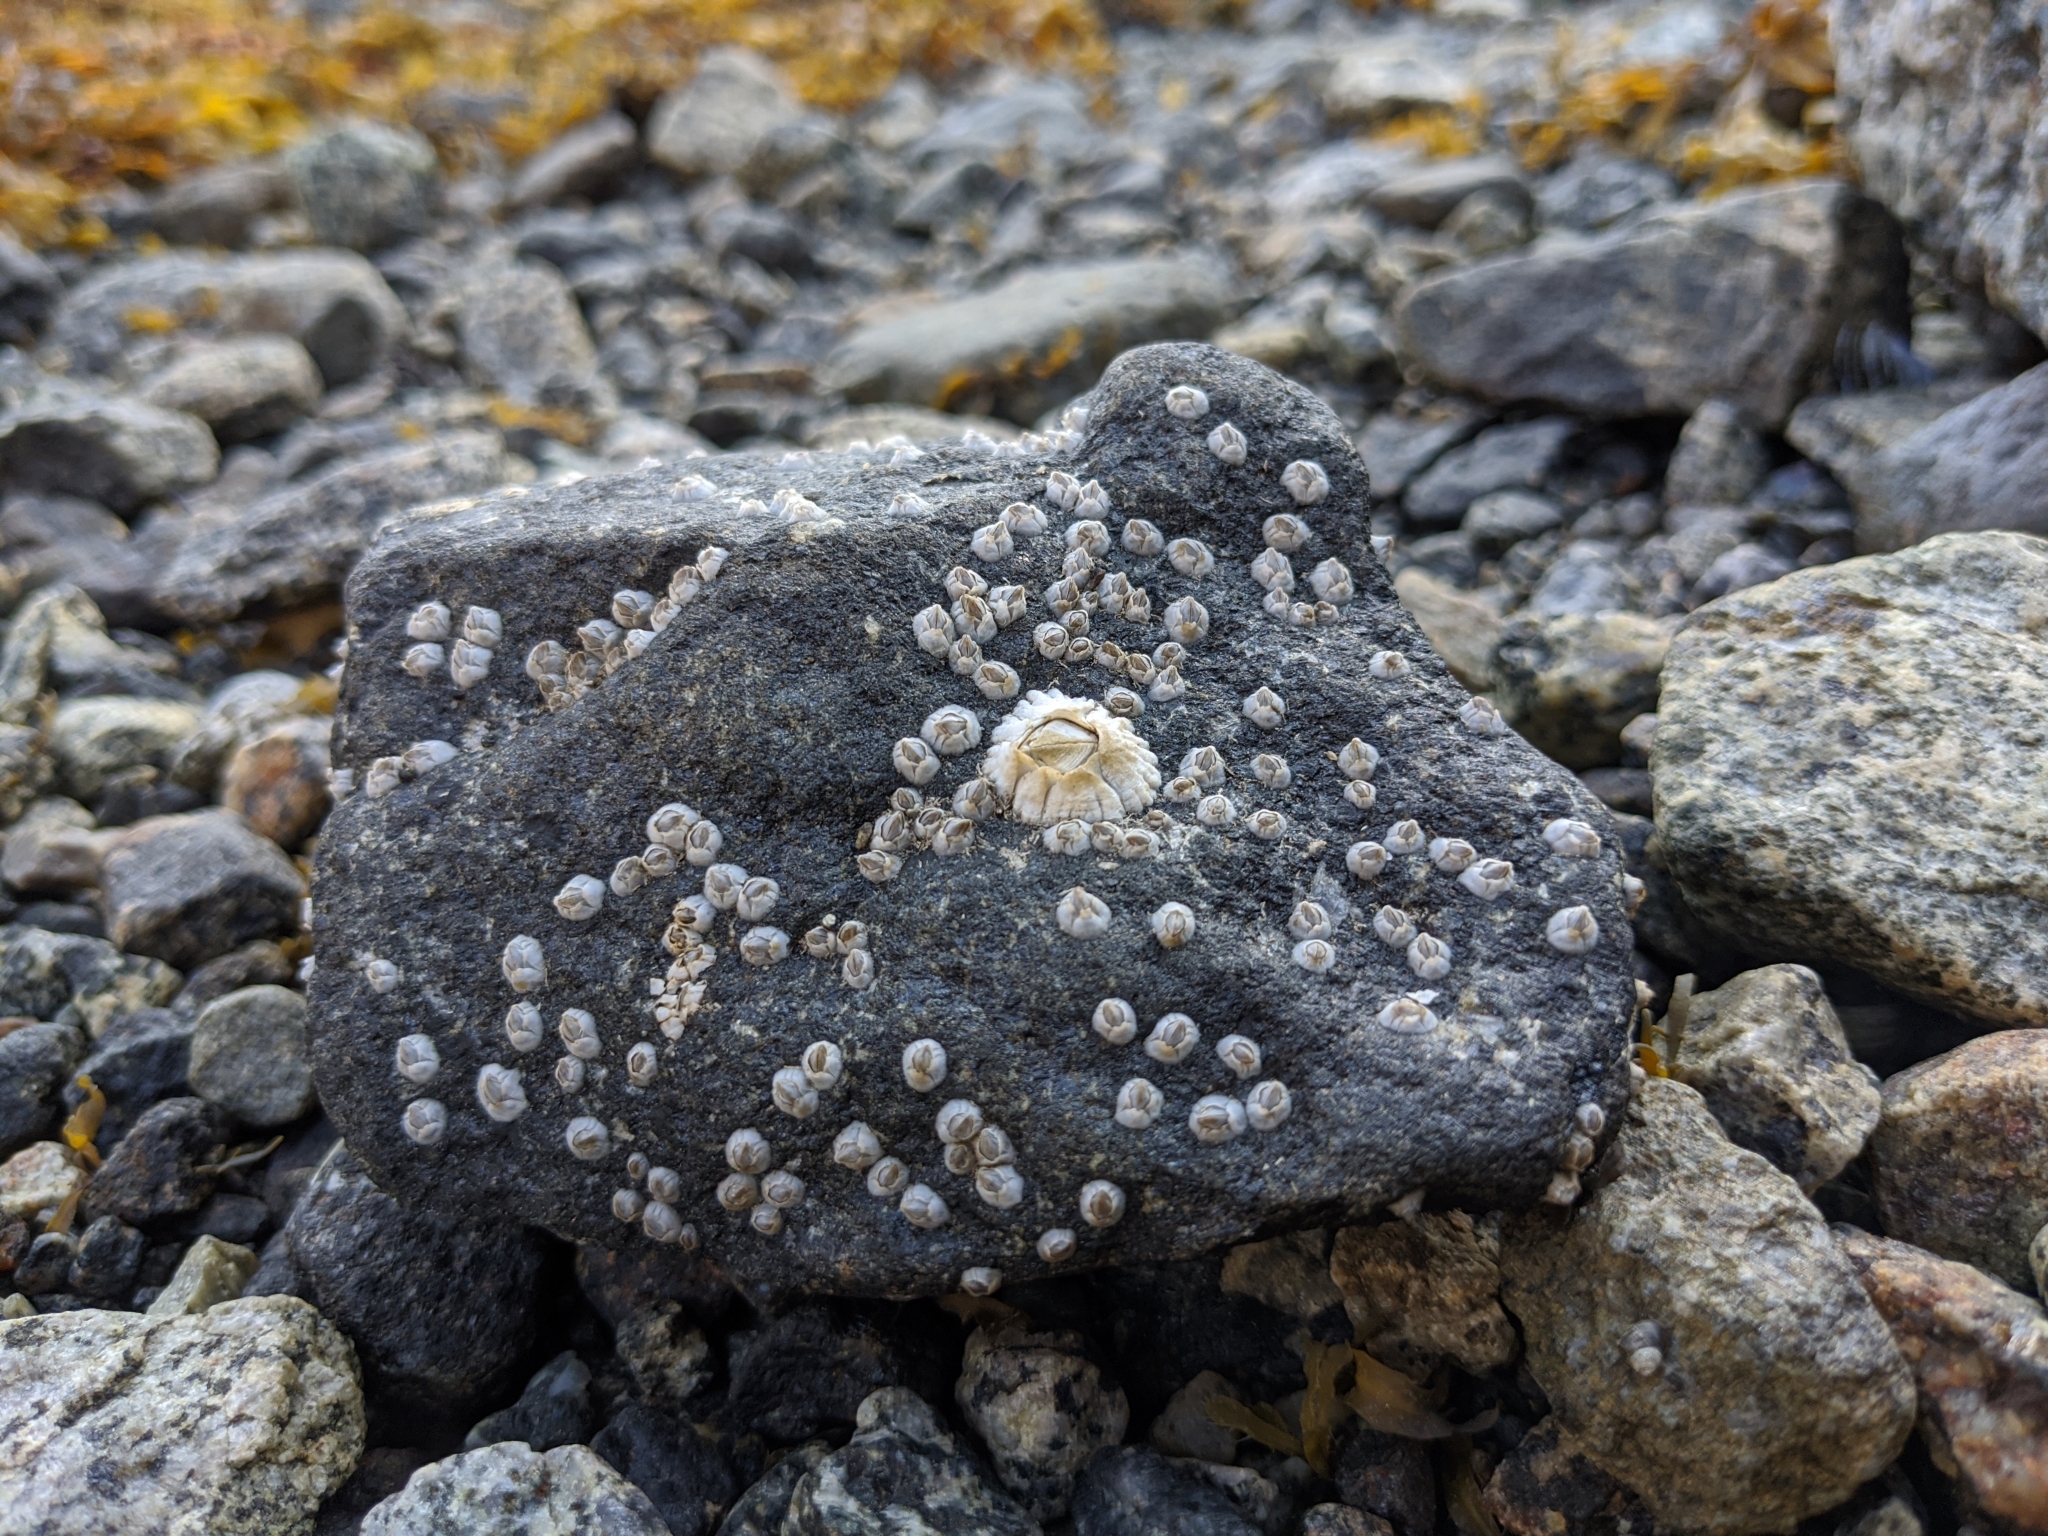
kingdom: Animalia
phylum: Arthropoda
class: Maxillopoda
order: Sessilia
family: Archaeobalanidae
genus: Semibalanus
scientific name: Semibalanus balanoides
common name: Acorn barnacle
